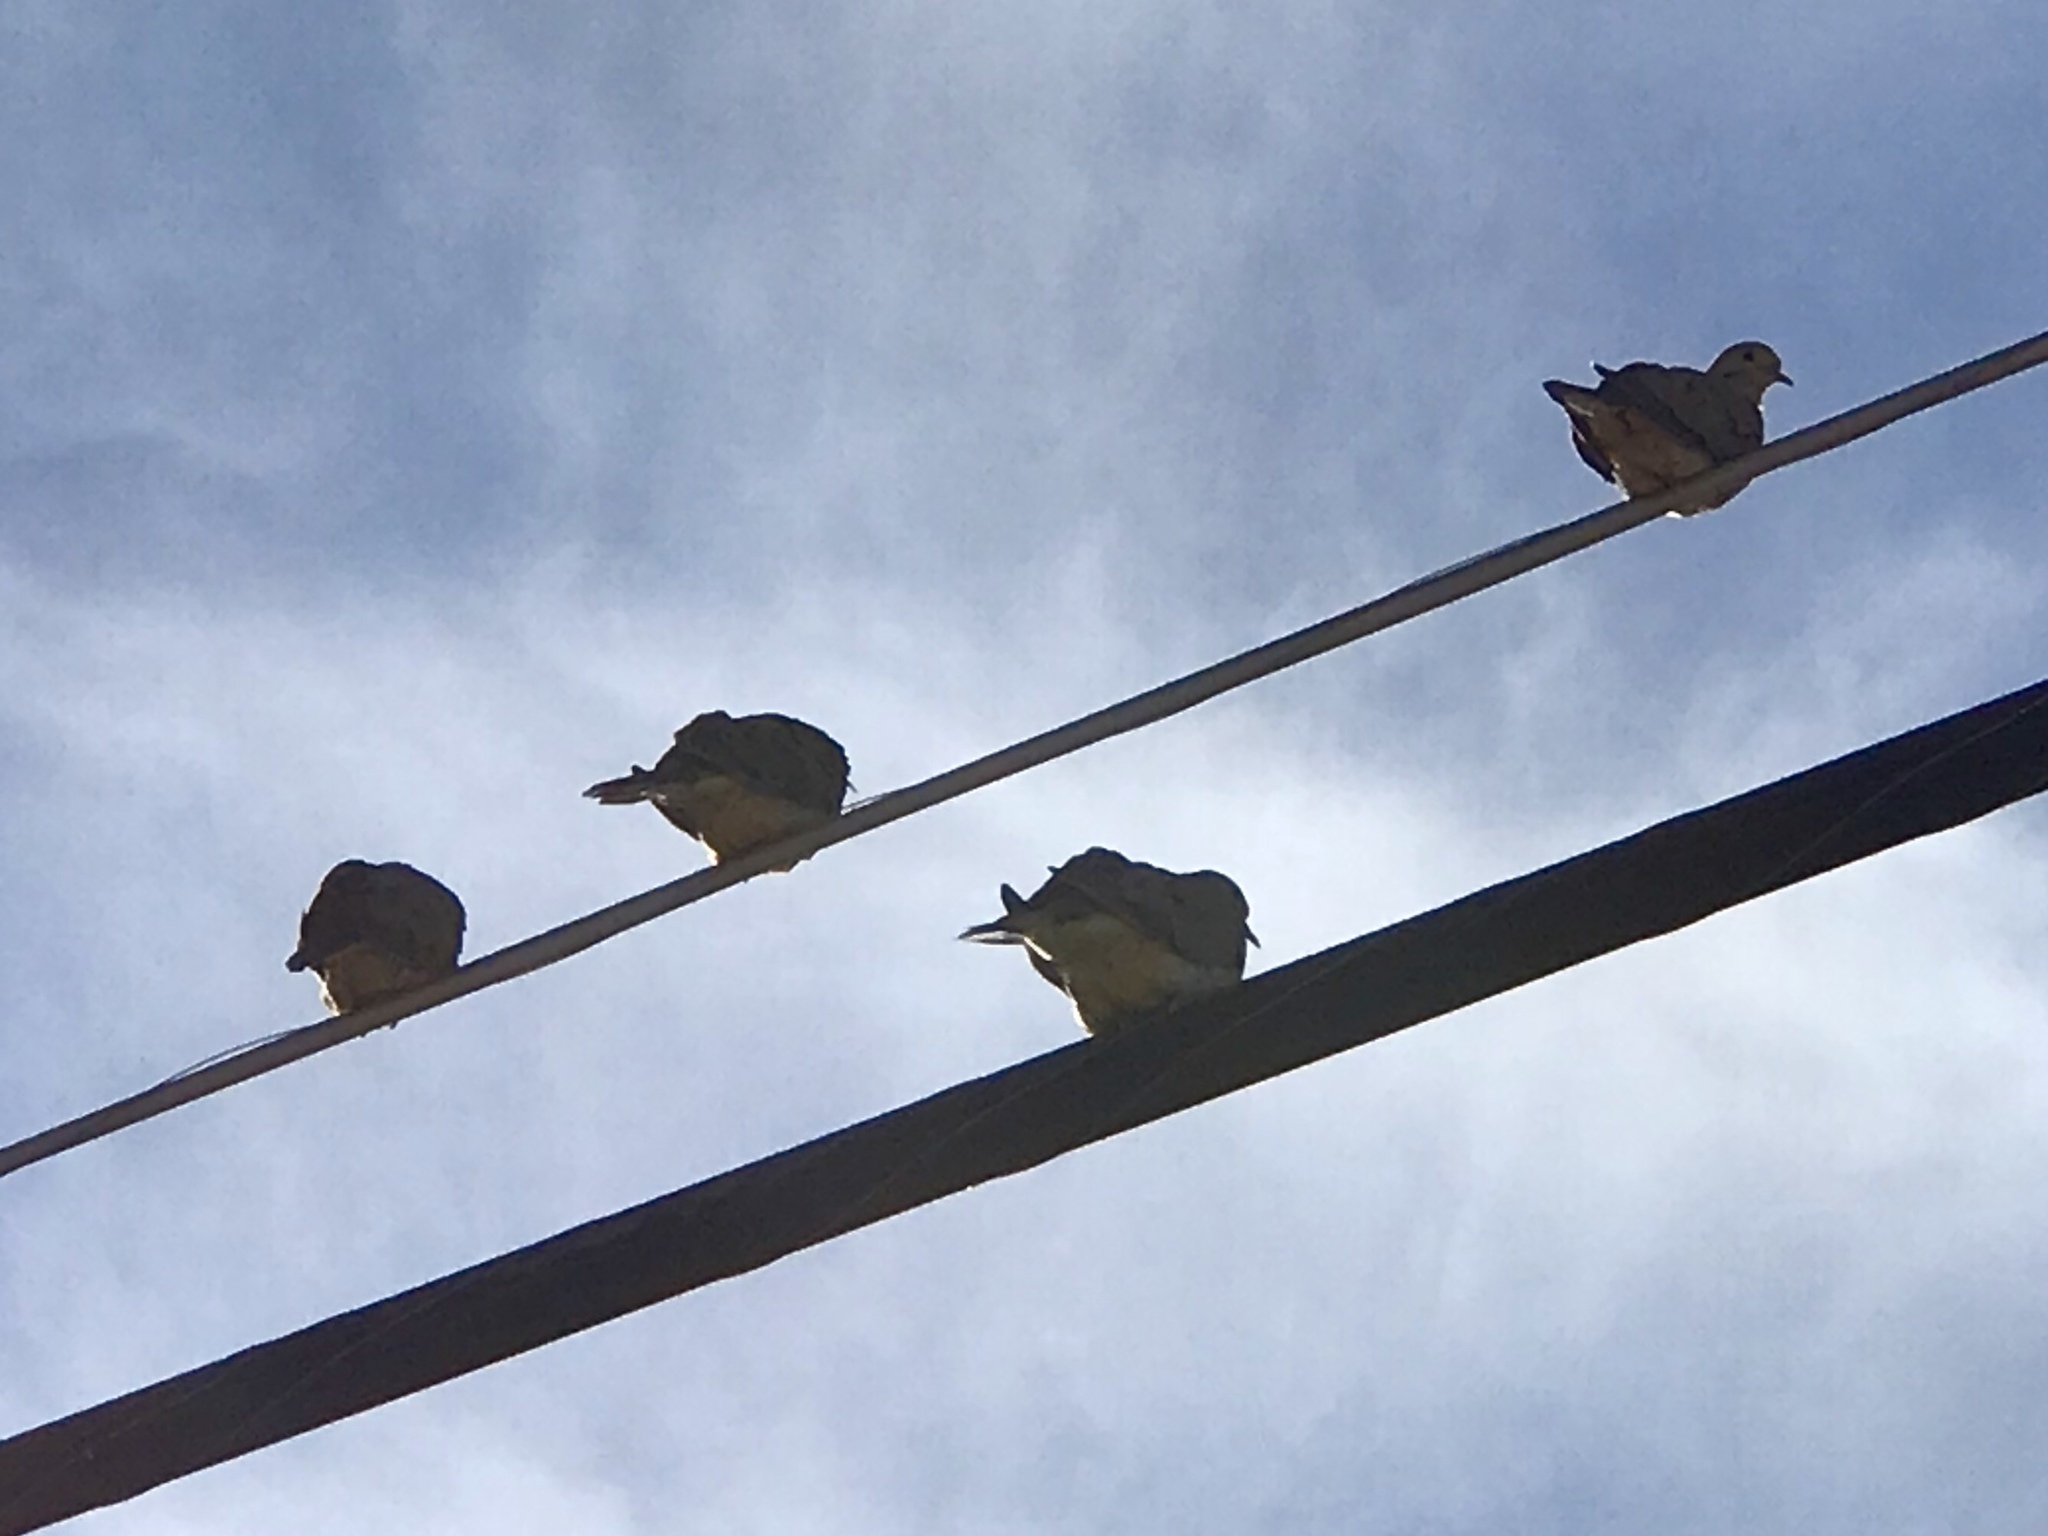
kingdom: Animalia
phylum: Chordata
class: Aves
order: Columbiformes
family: Columbidae
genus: Zenaida
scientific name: Zenaida macroura
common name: Mourning dove
